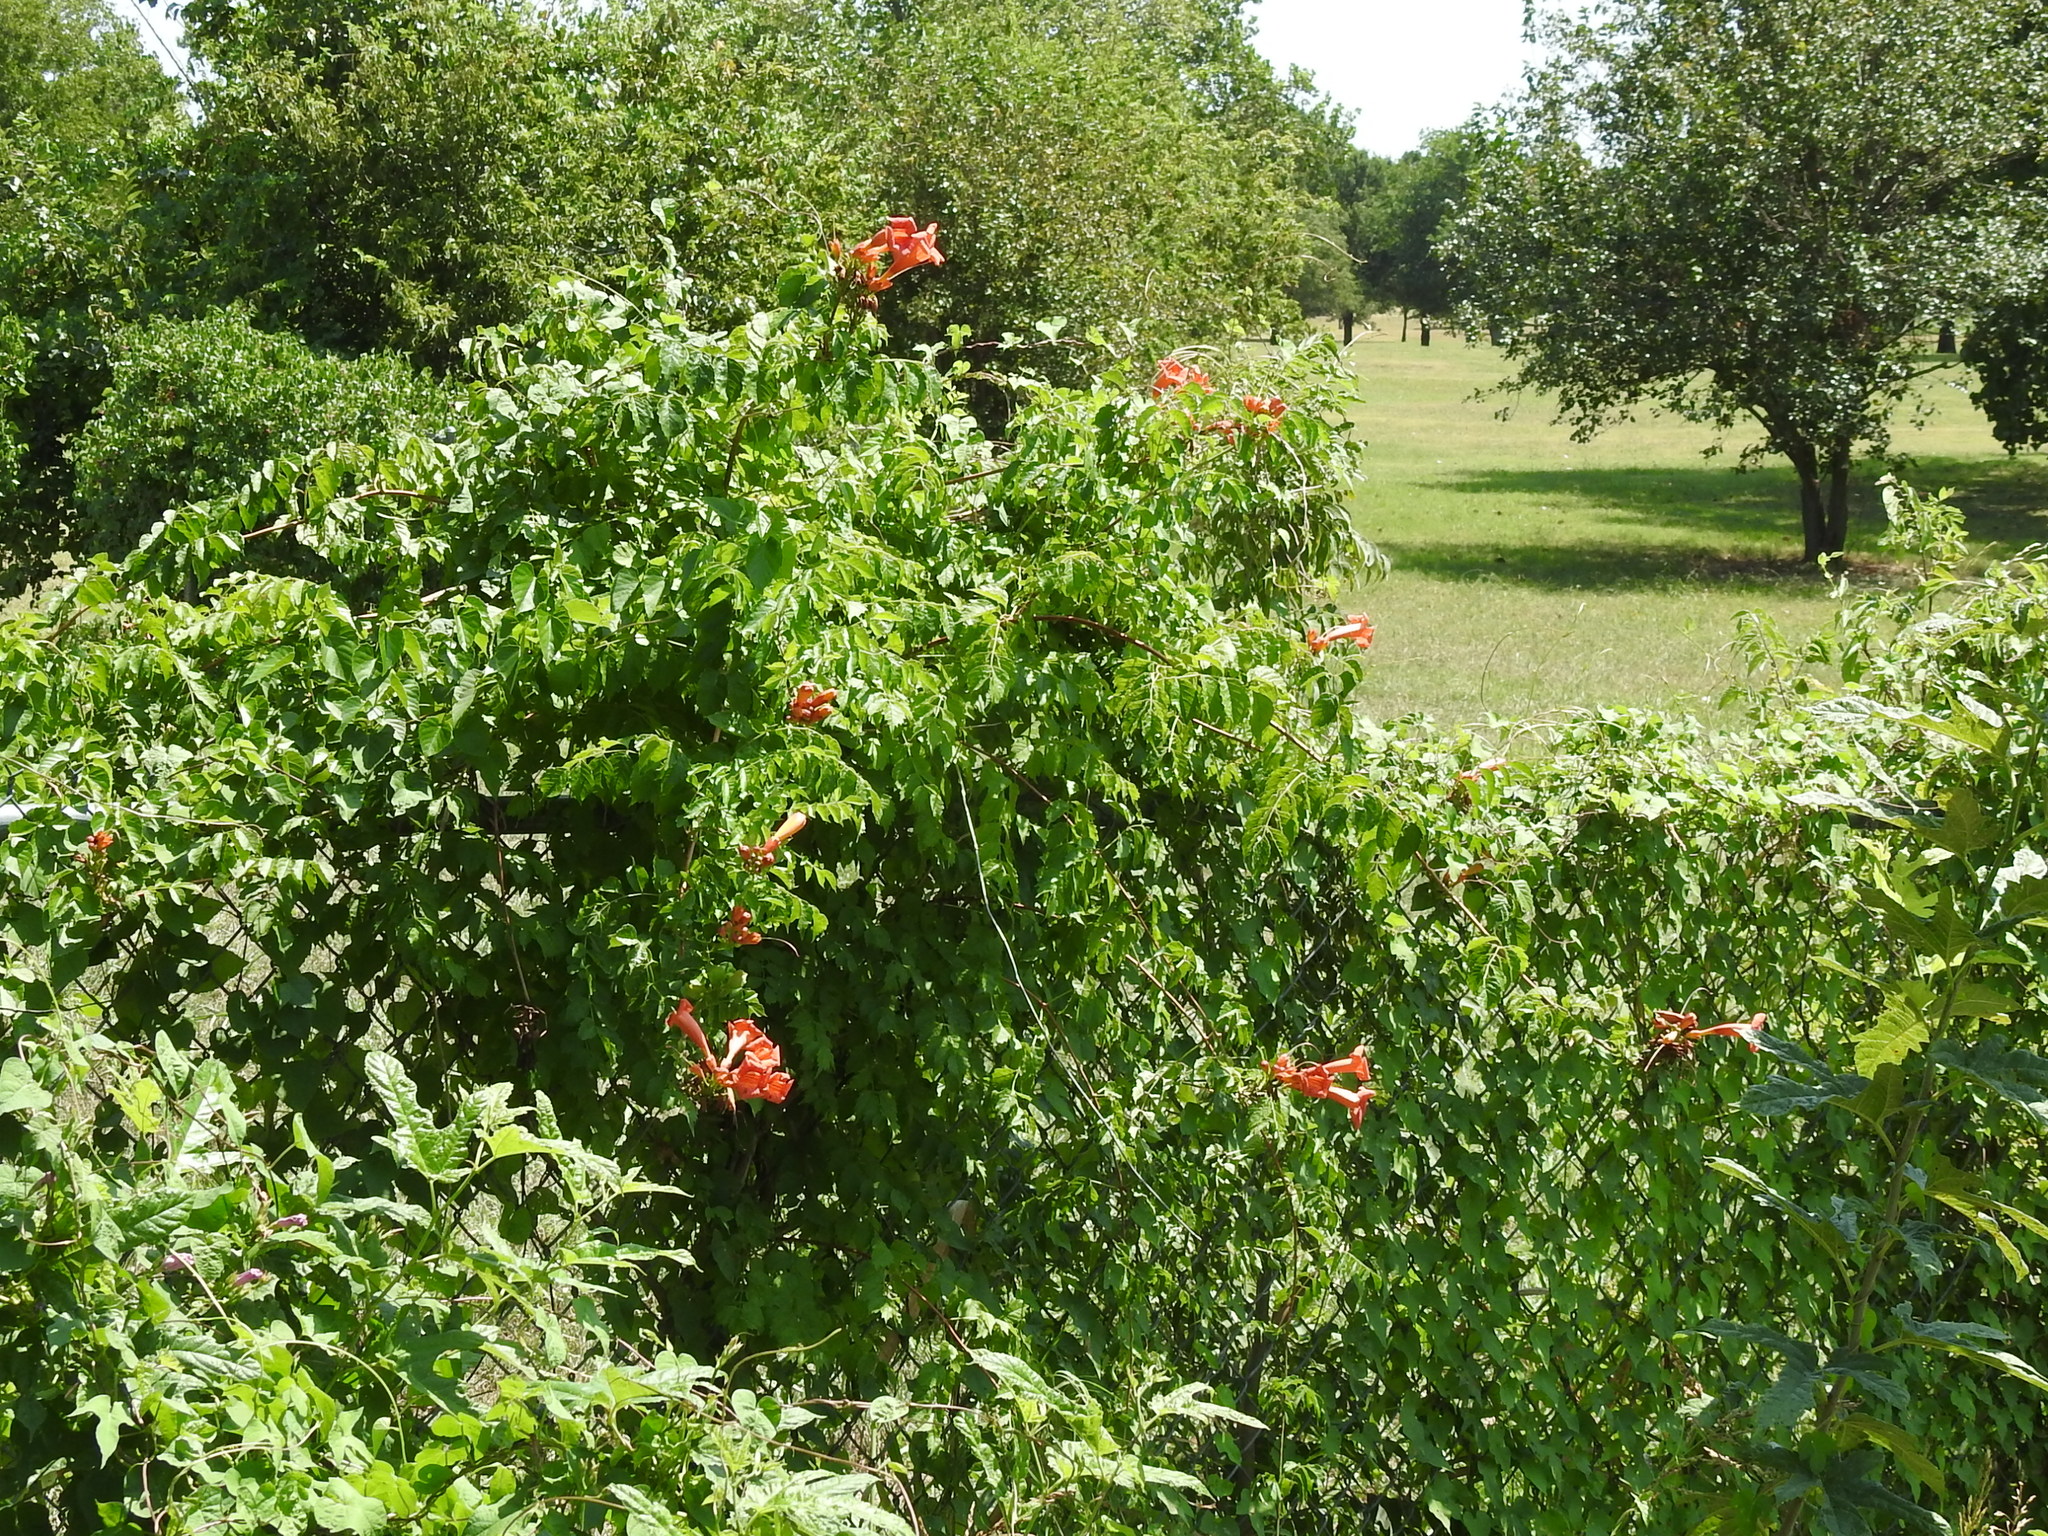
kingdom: Plantae
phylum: Tracheophyta
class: Magnoliopsida
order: Lamiales
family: Bignoniaceae
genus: Campsis
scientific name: Campsis radicans
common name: Trumpet-creeper
